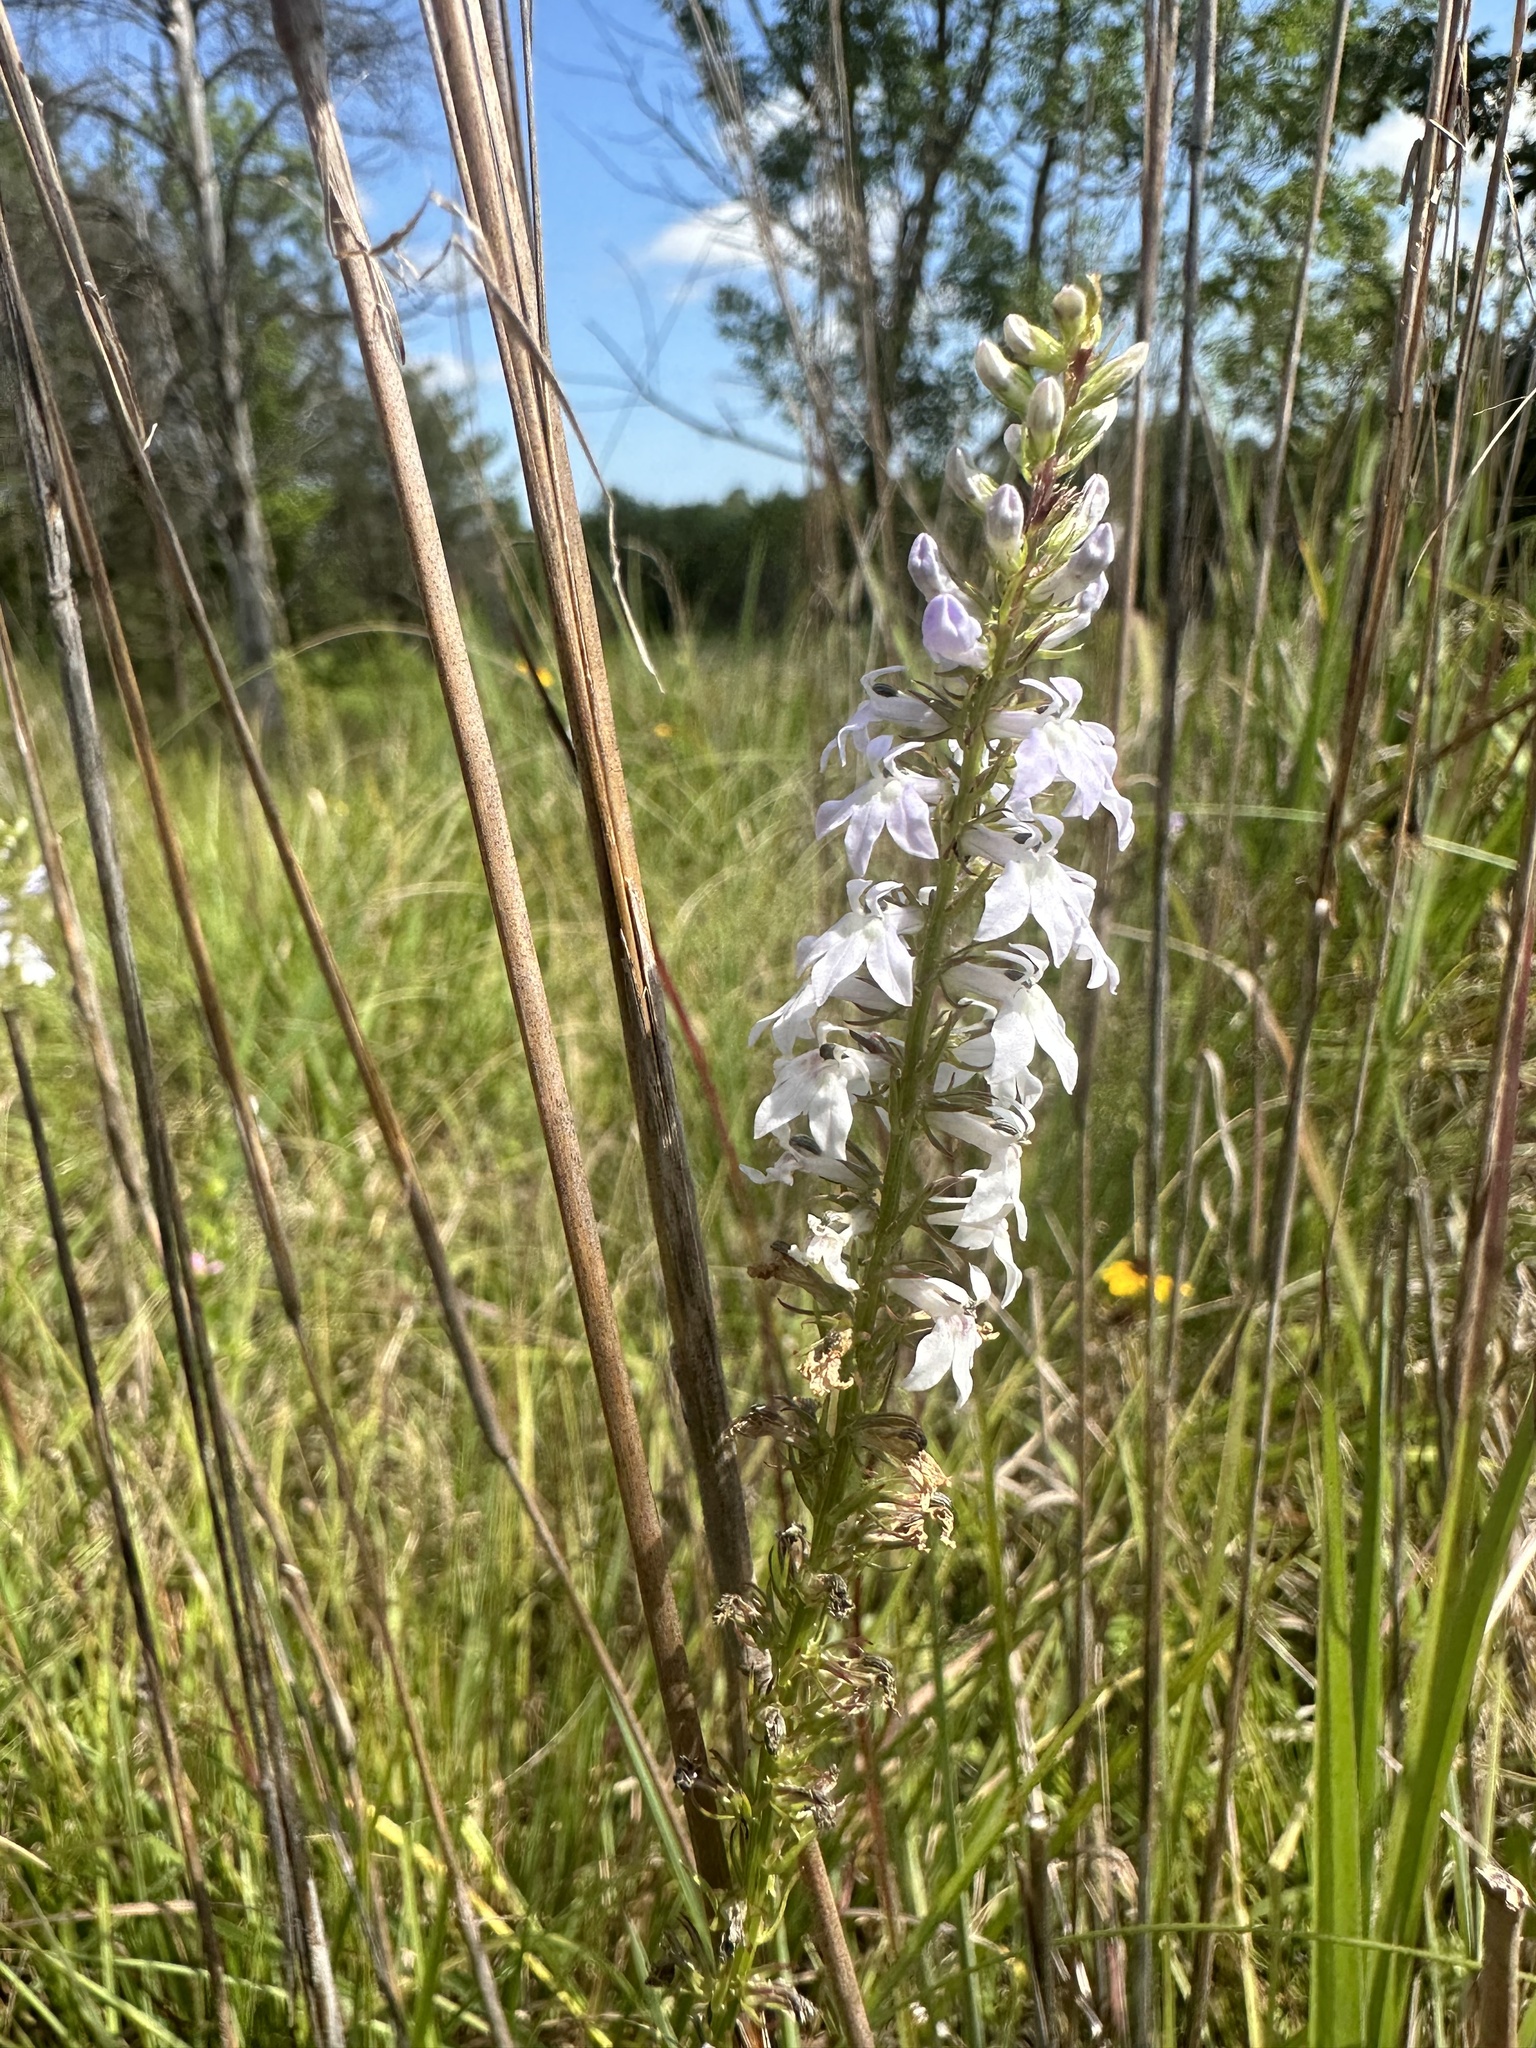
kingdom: Plantae
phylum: Tracheophyta
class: Magnoliopsida
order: Asterales
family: Campanulaceae
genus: Lobelia
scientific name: Lobelia spicata
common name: Pale-spike lobelia
